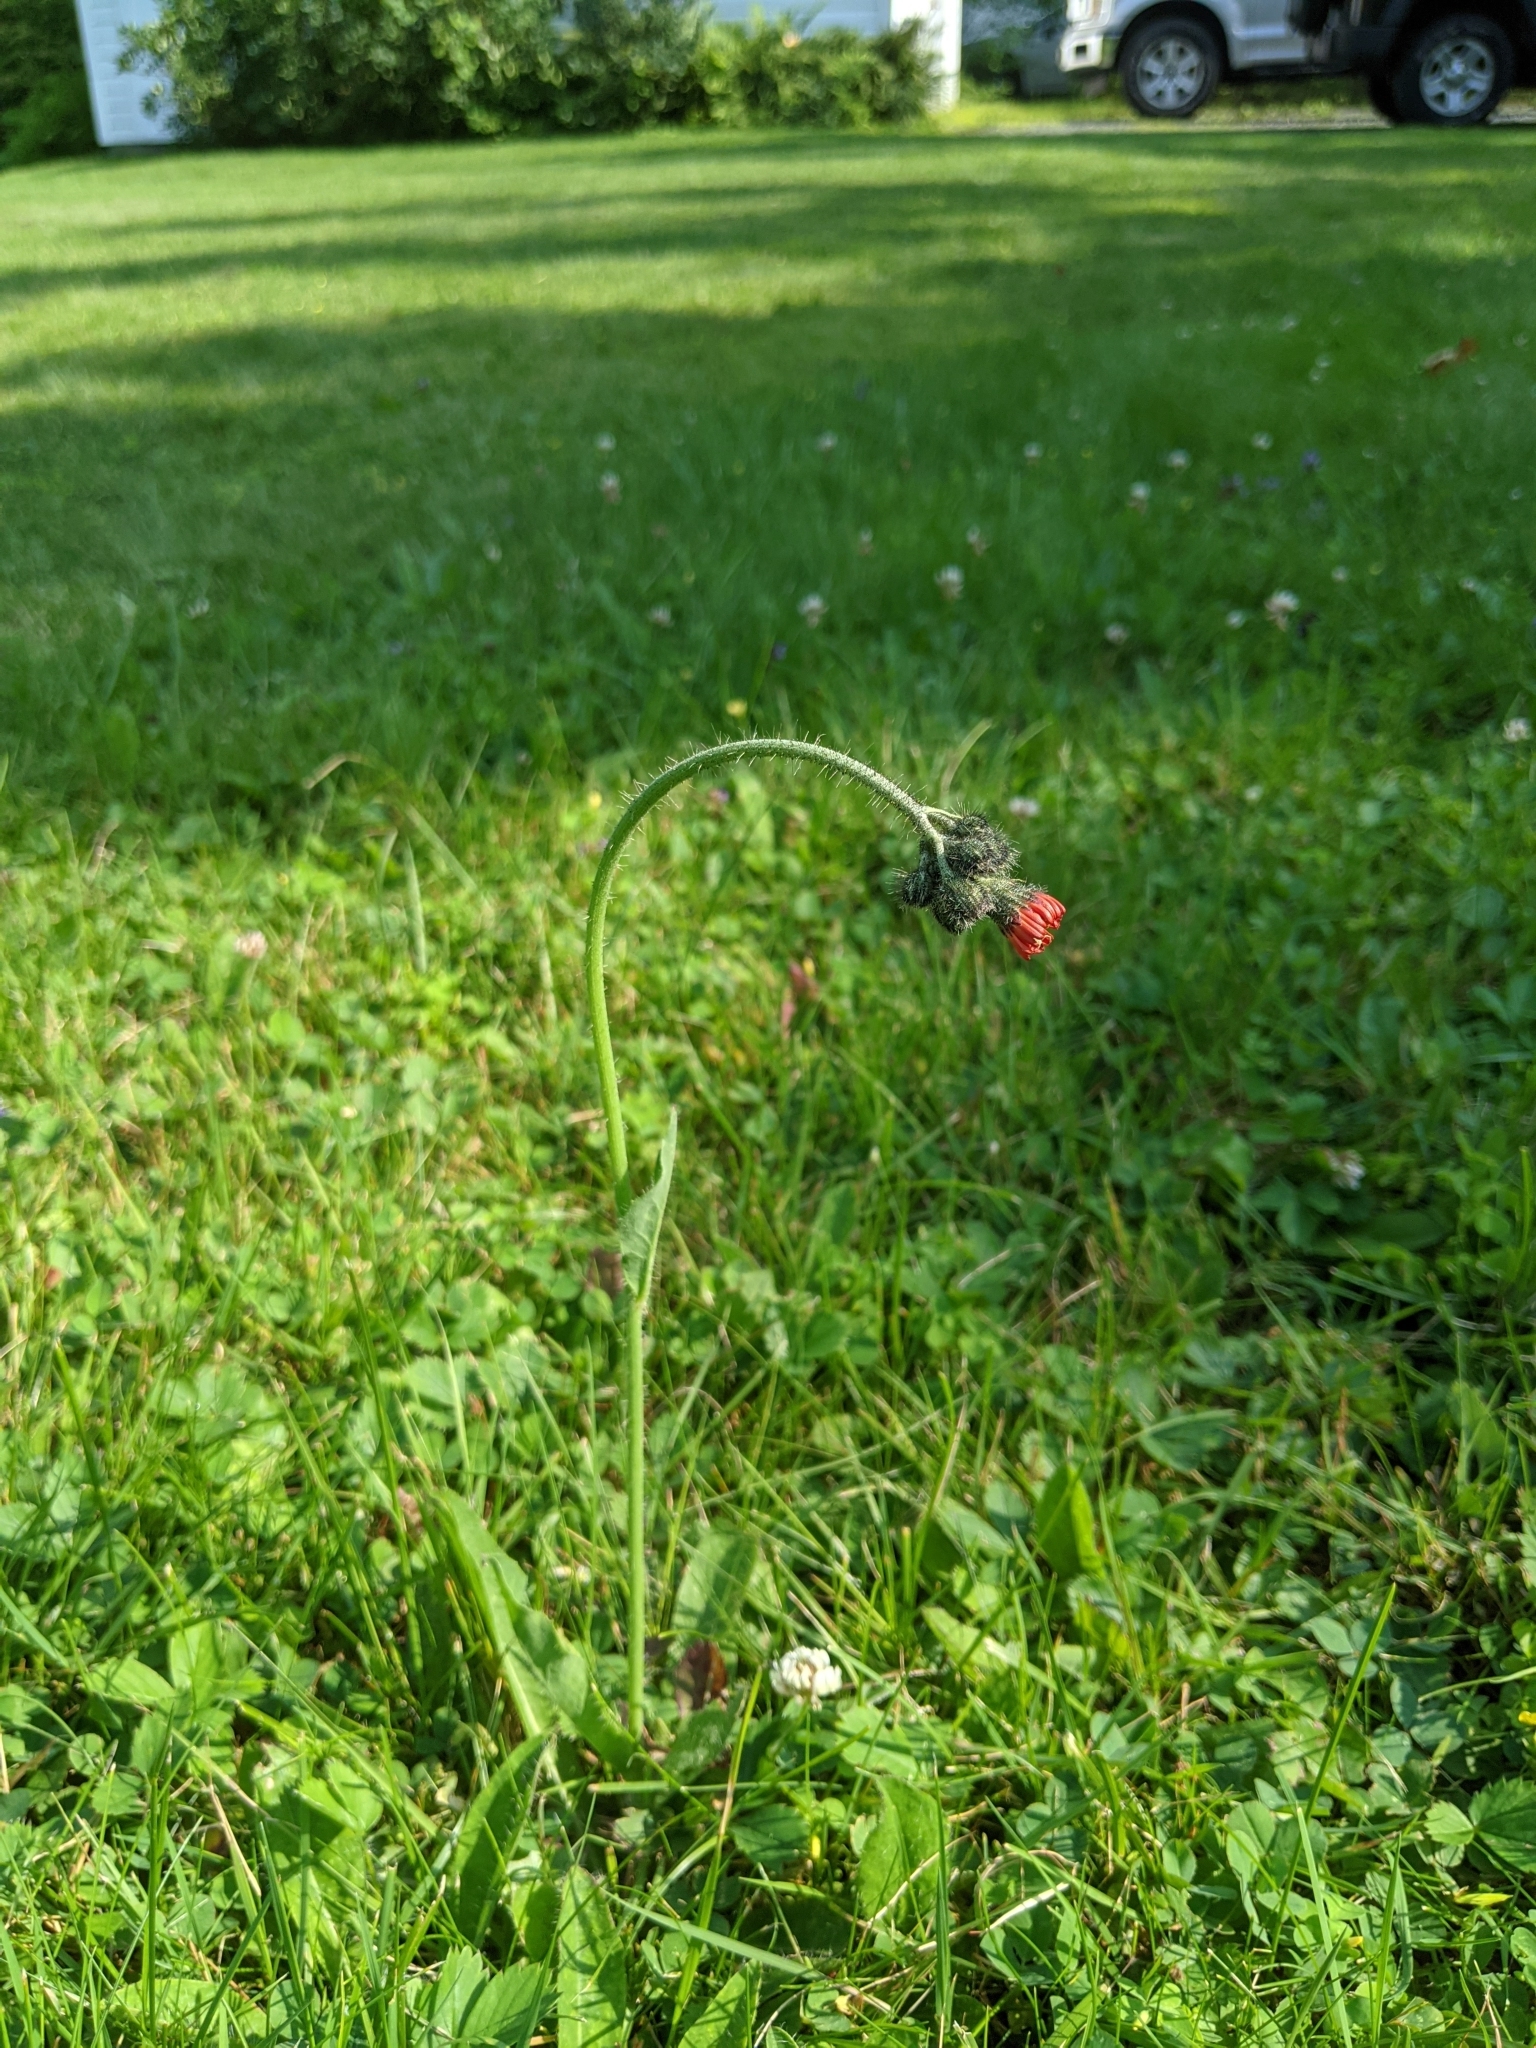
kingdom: Plantae
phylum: Tracheophyta
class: Magnoliopsida
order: Asterales
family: Asteraceae
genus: Pilosella
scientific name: Pilosella aurantiaca
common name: Fox-and-cubs
